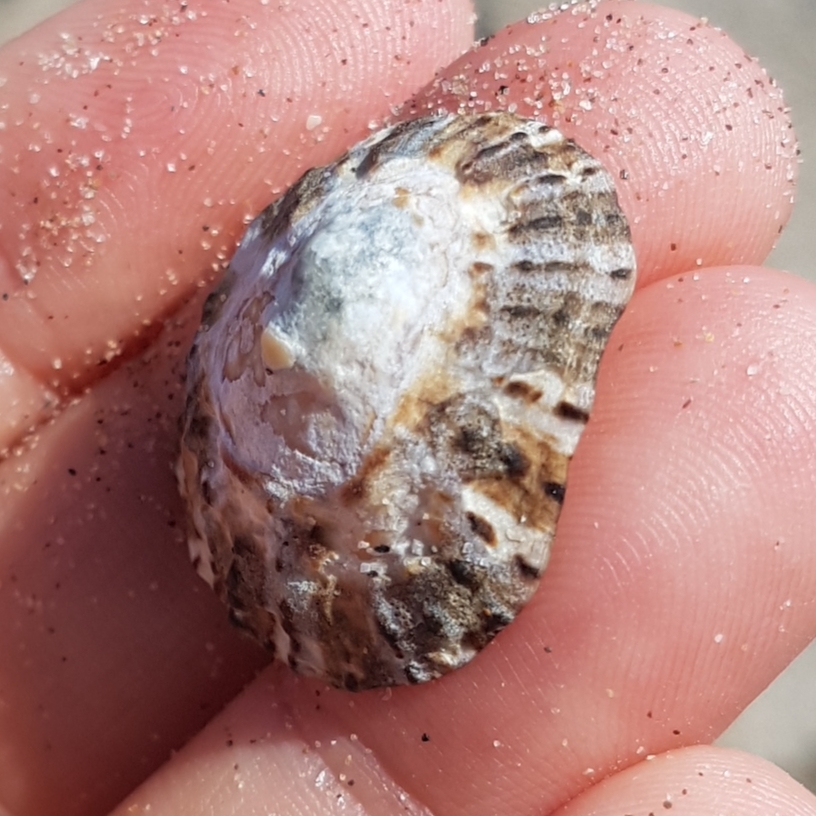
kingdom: Animalia
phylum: Mollusca
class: Gastropoda
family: Patellidae
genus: Patella
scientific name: Patella rustica
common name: Lusitanian limpet
